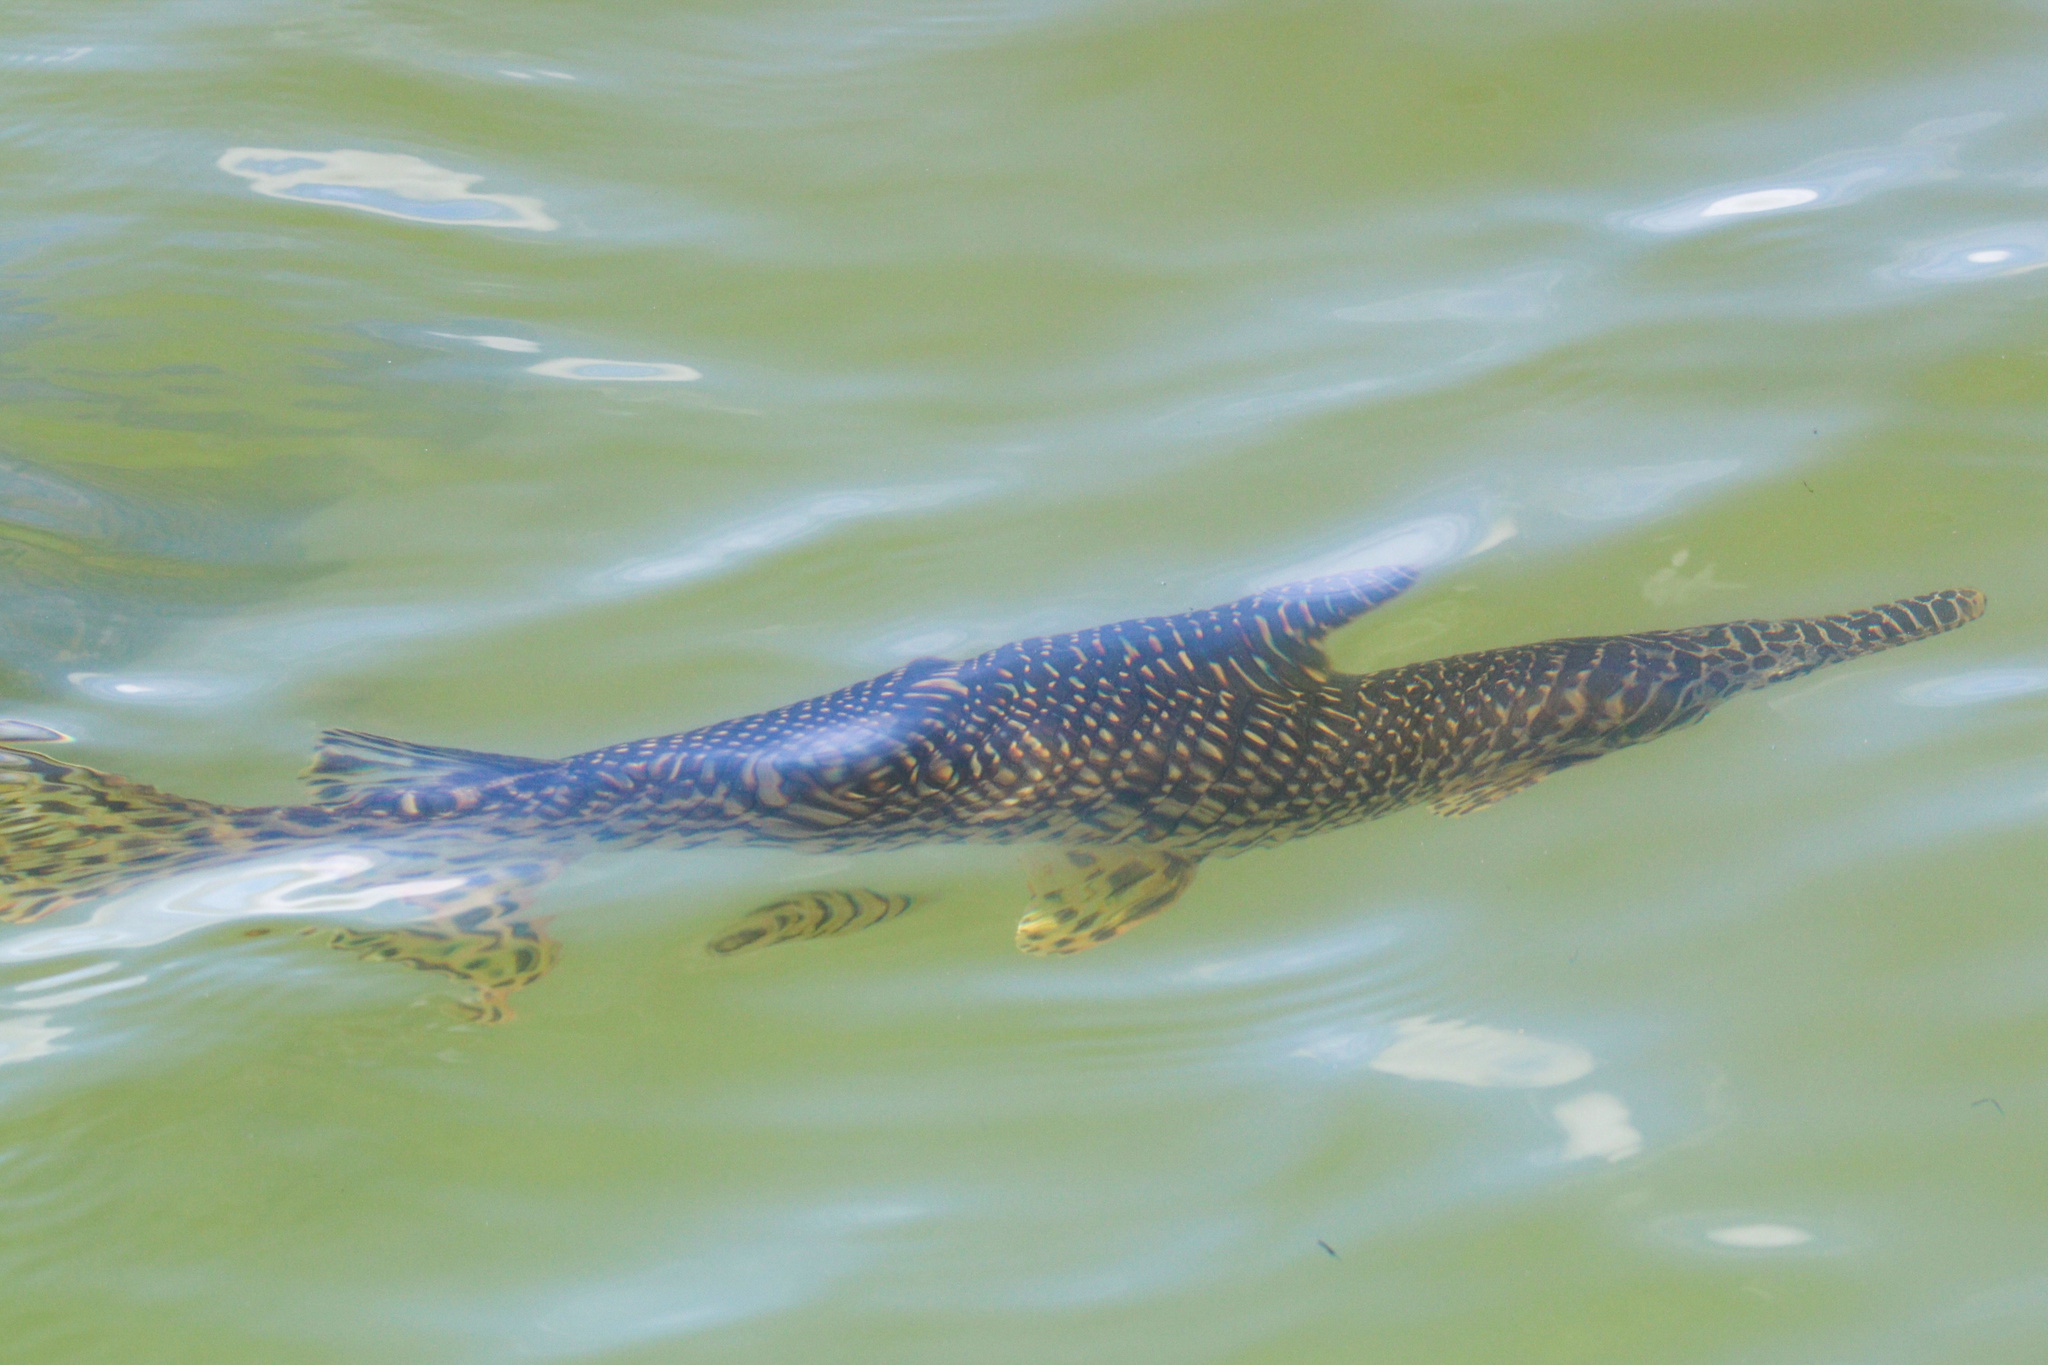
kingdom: Animalia
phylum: Chordata
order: Lepisosteiformes
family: Lepisosteidae
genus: Lepisosteus
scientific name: Lepisosteus oculatus
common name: Spotted gar
